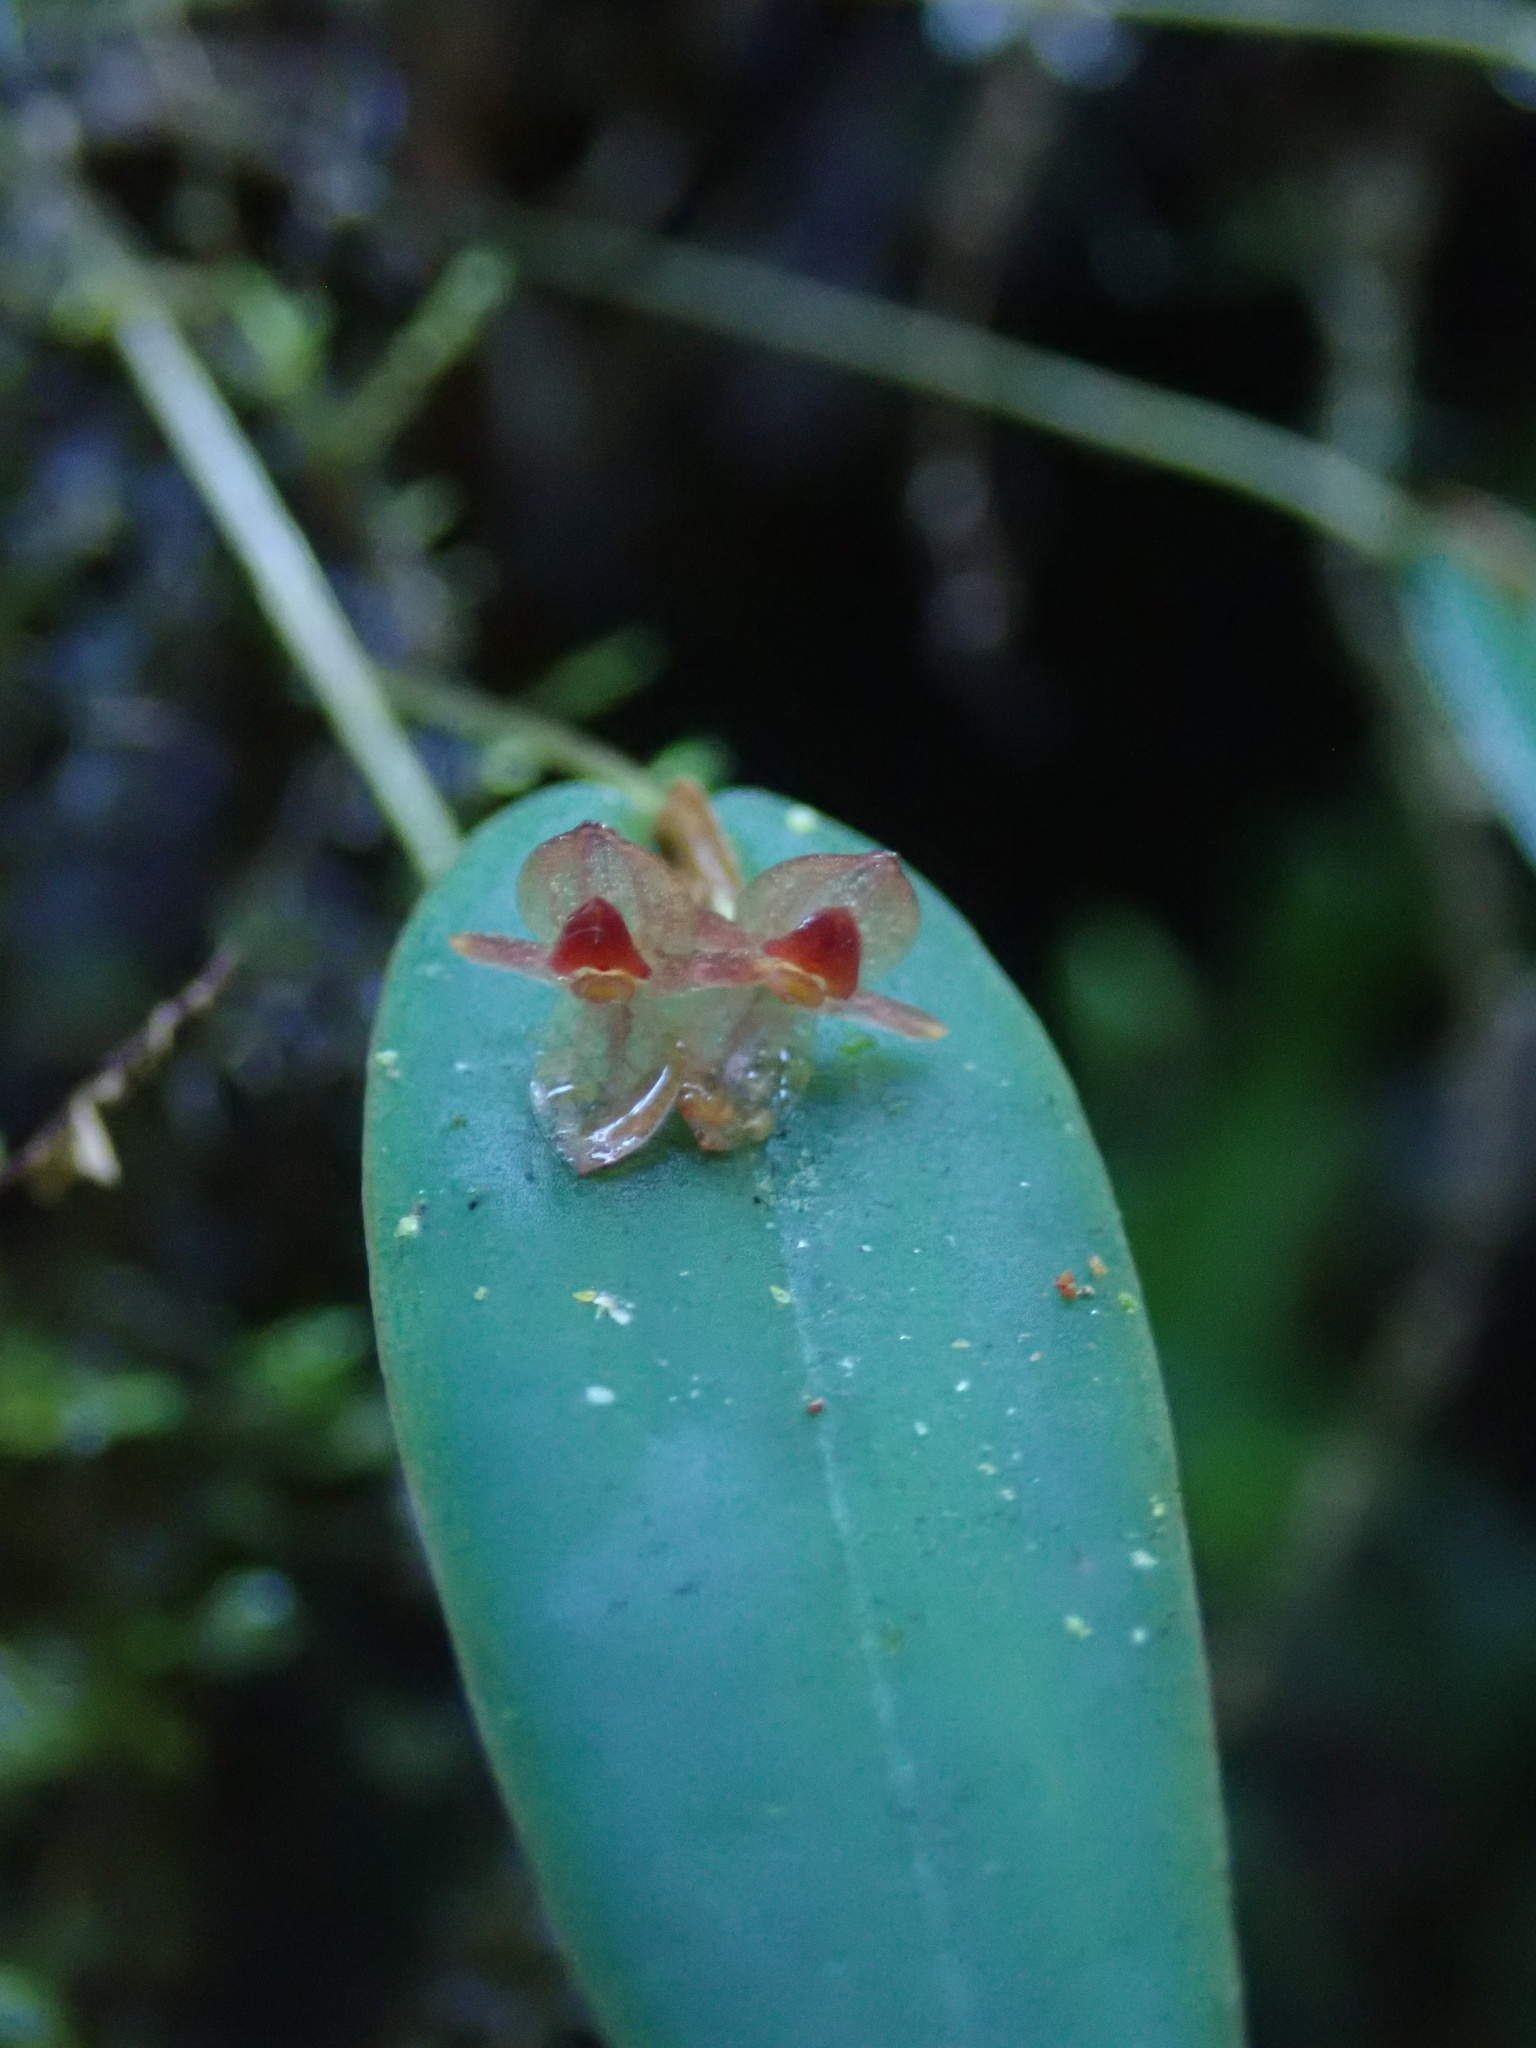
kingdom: Plantae
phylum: Tracheophyta
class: Liliopsida
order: Asparagales
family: Orchidaceae
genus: Pleurothallis
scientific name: Pleurothallis pansamalae
